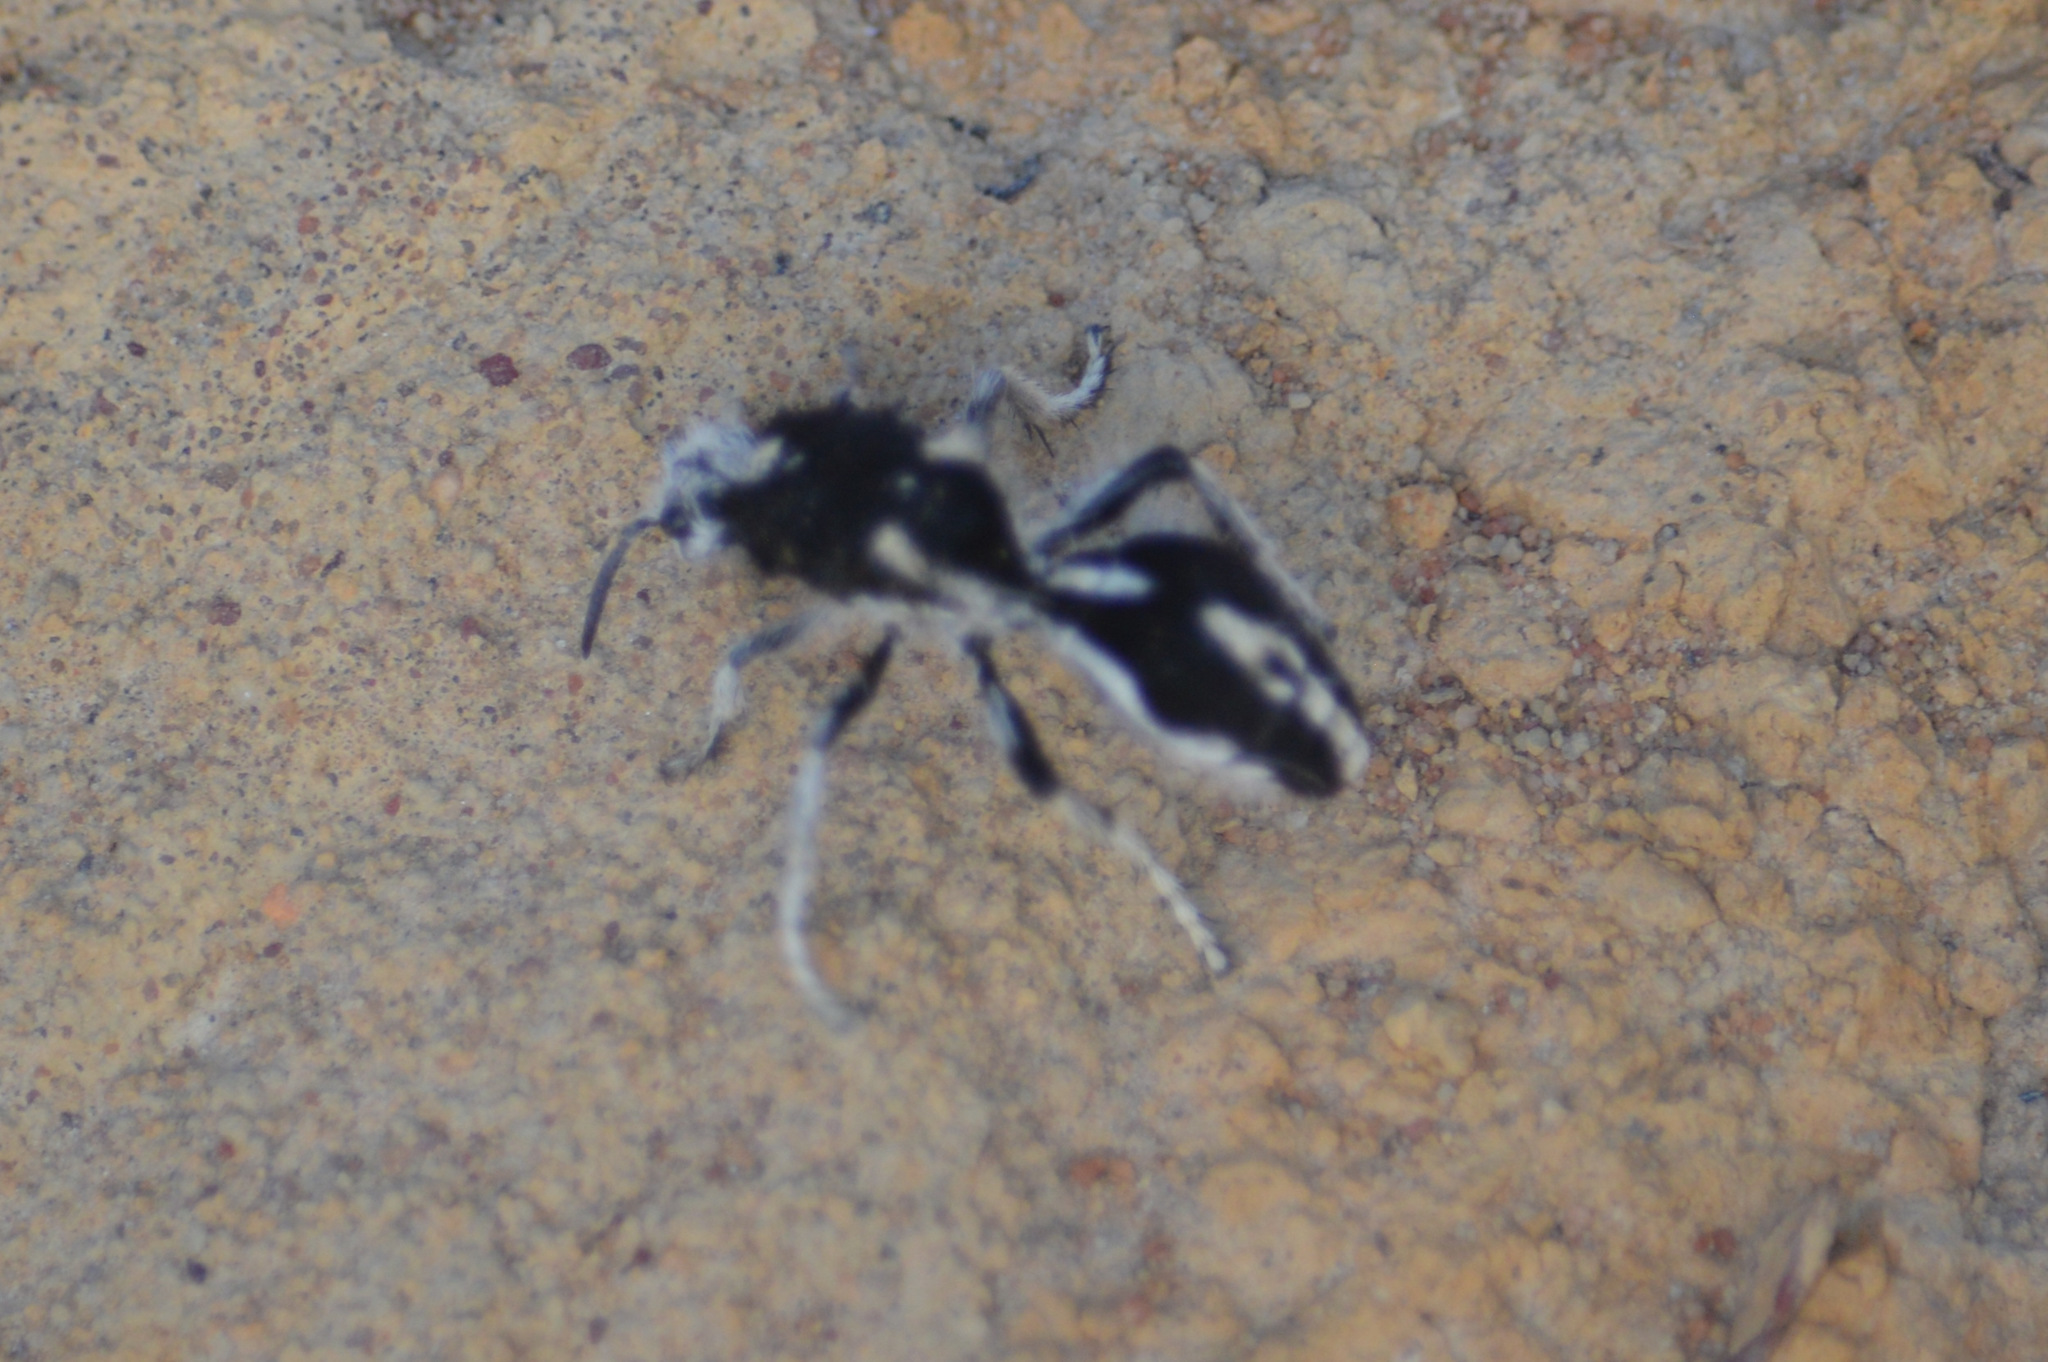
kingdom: Animalia
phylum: Arthropoda
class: Insecta
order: Hymenoptera
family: Mutillidae
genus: Leucospilomutilla
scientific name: Leucospilomutilla cerbera
